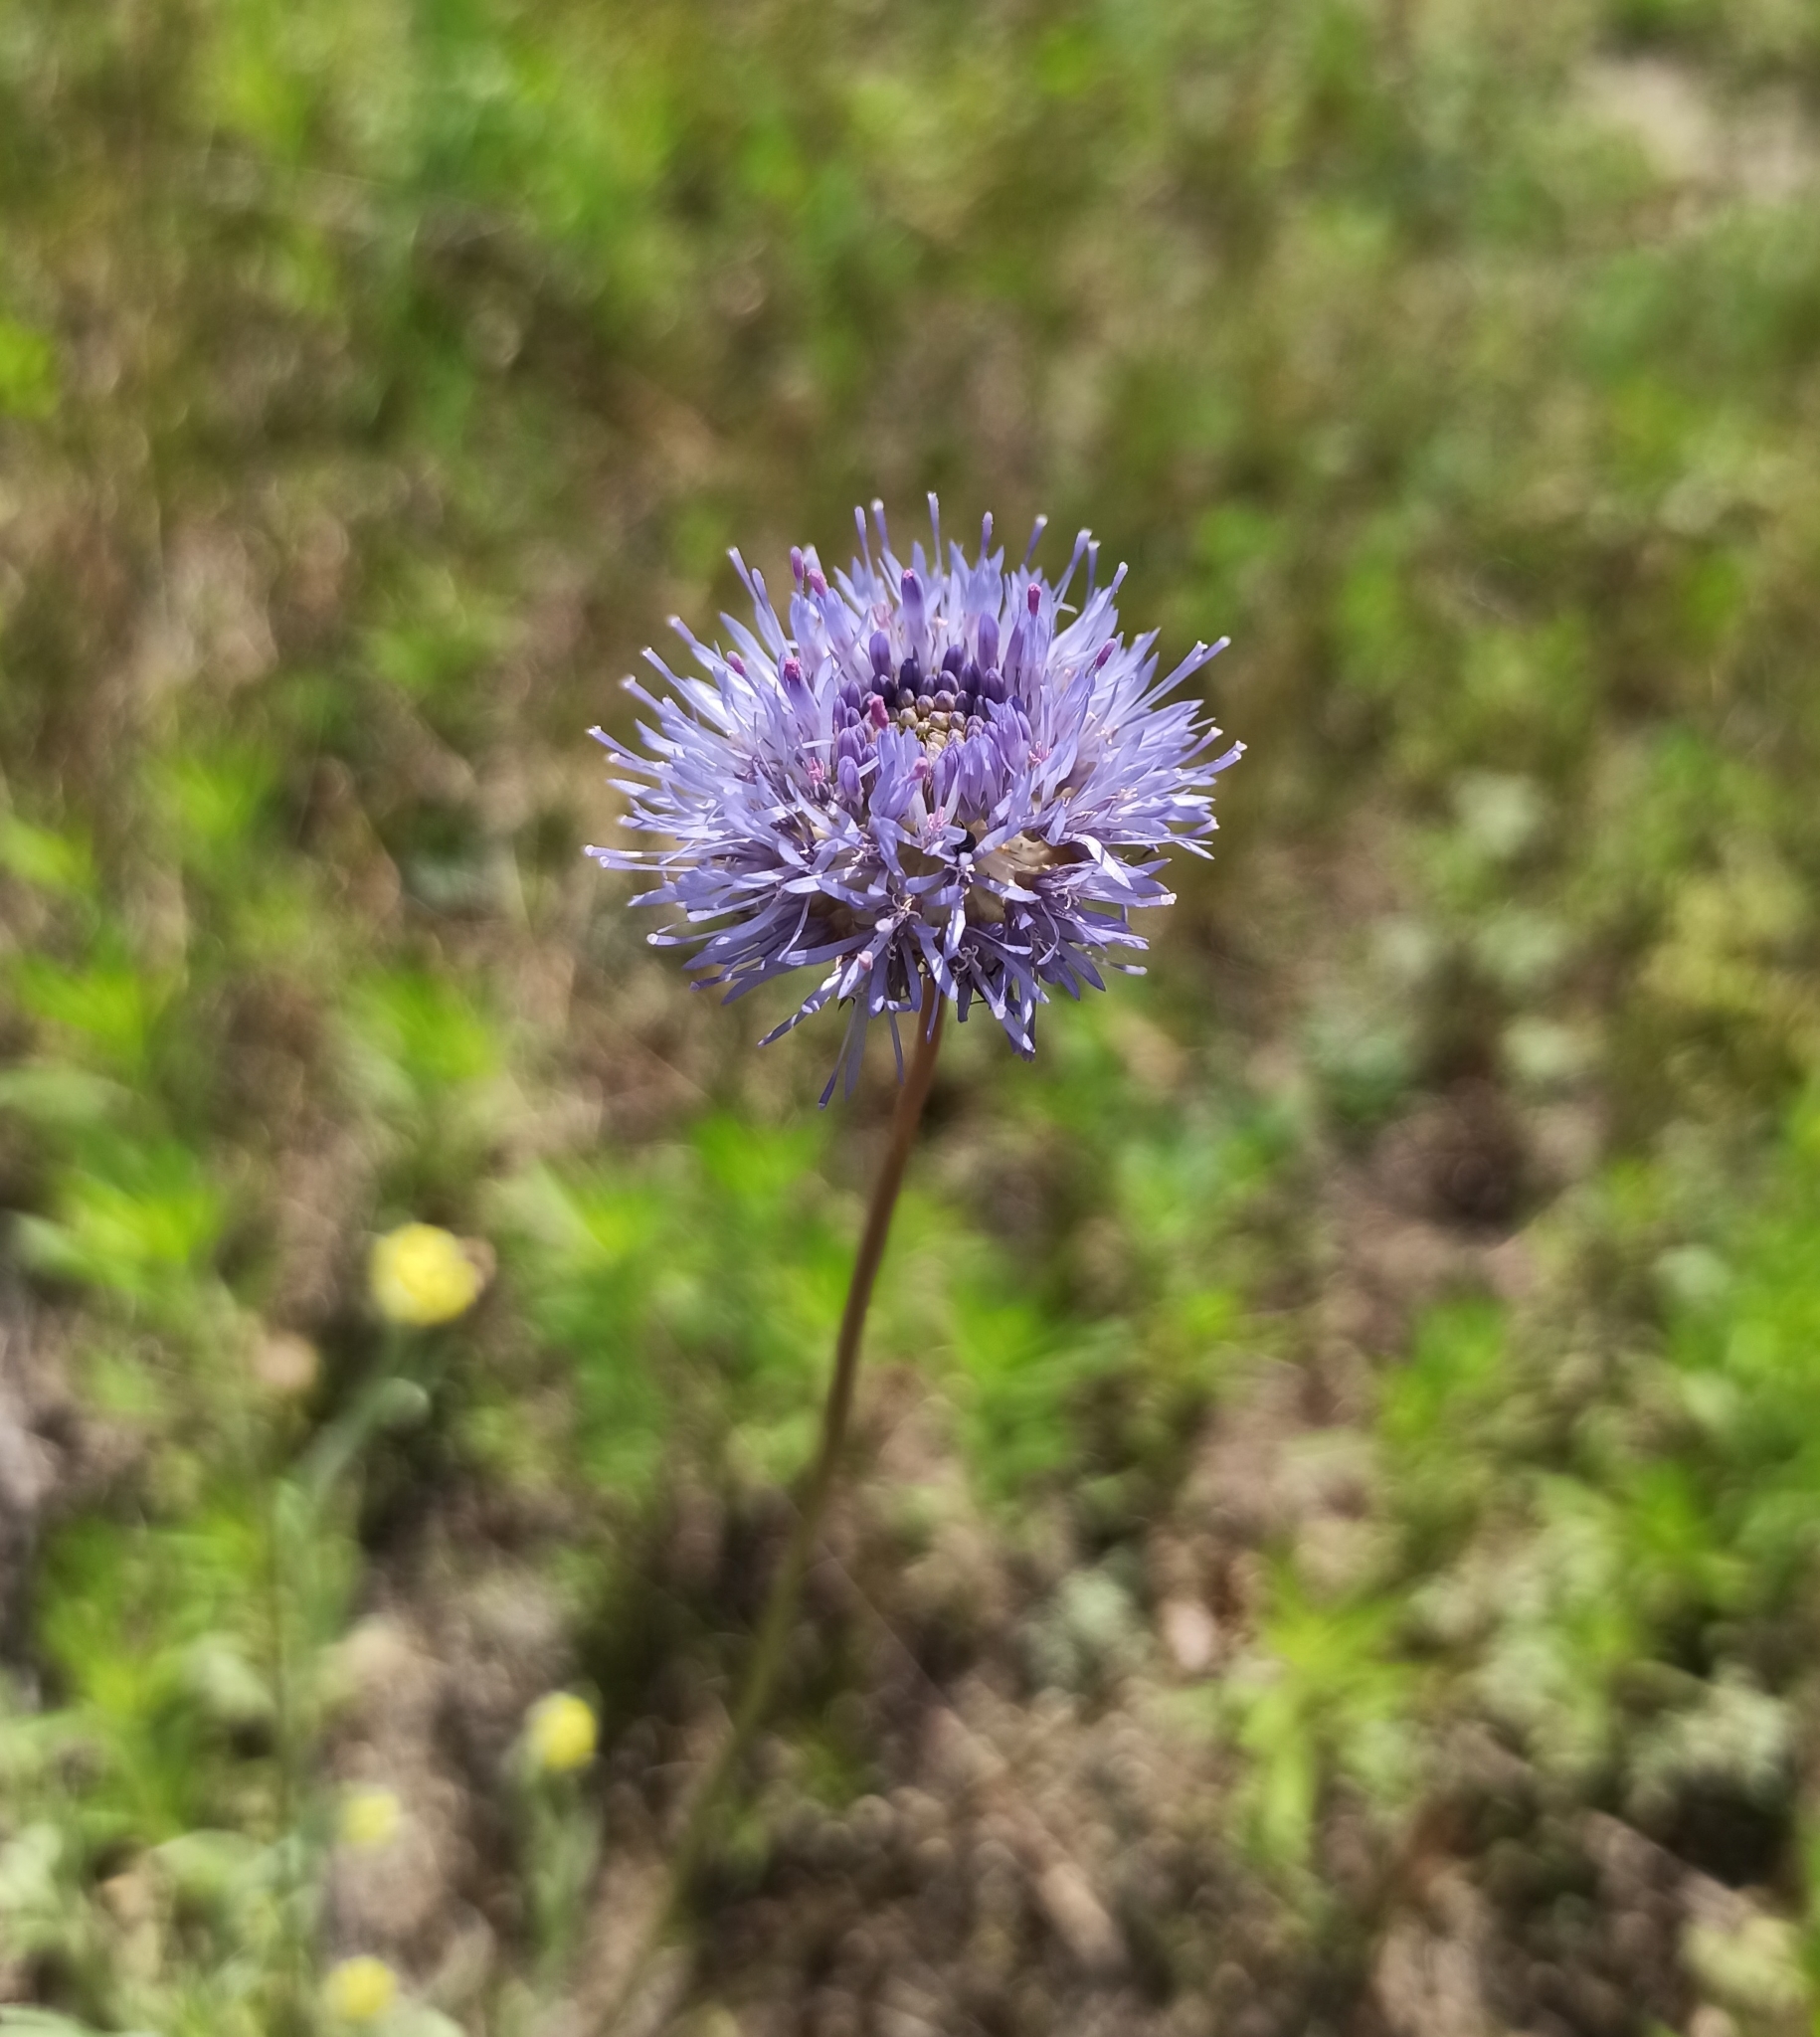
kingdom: Plantae
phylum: Tracheophyta
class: Magnoliopsida
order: Asterales
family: Campanulaceae
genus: Jasione
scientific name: Jasione montana
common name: Sheep's-bit
